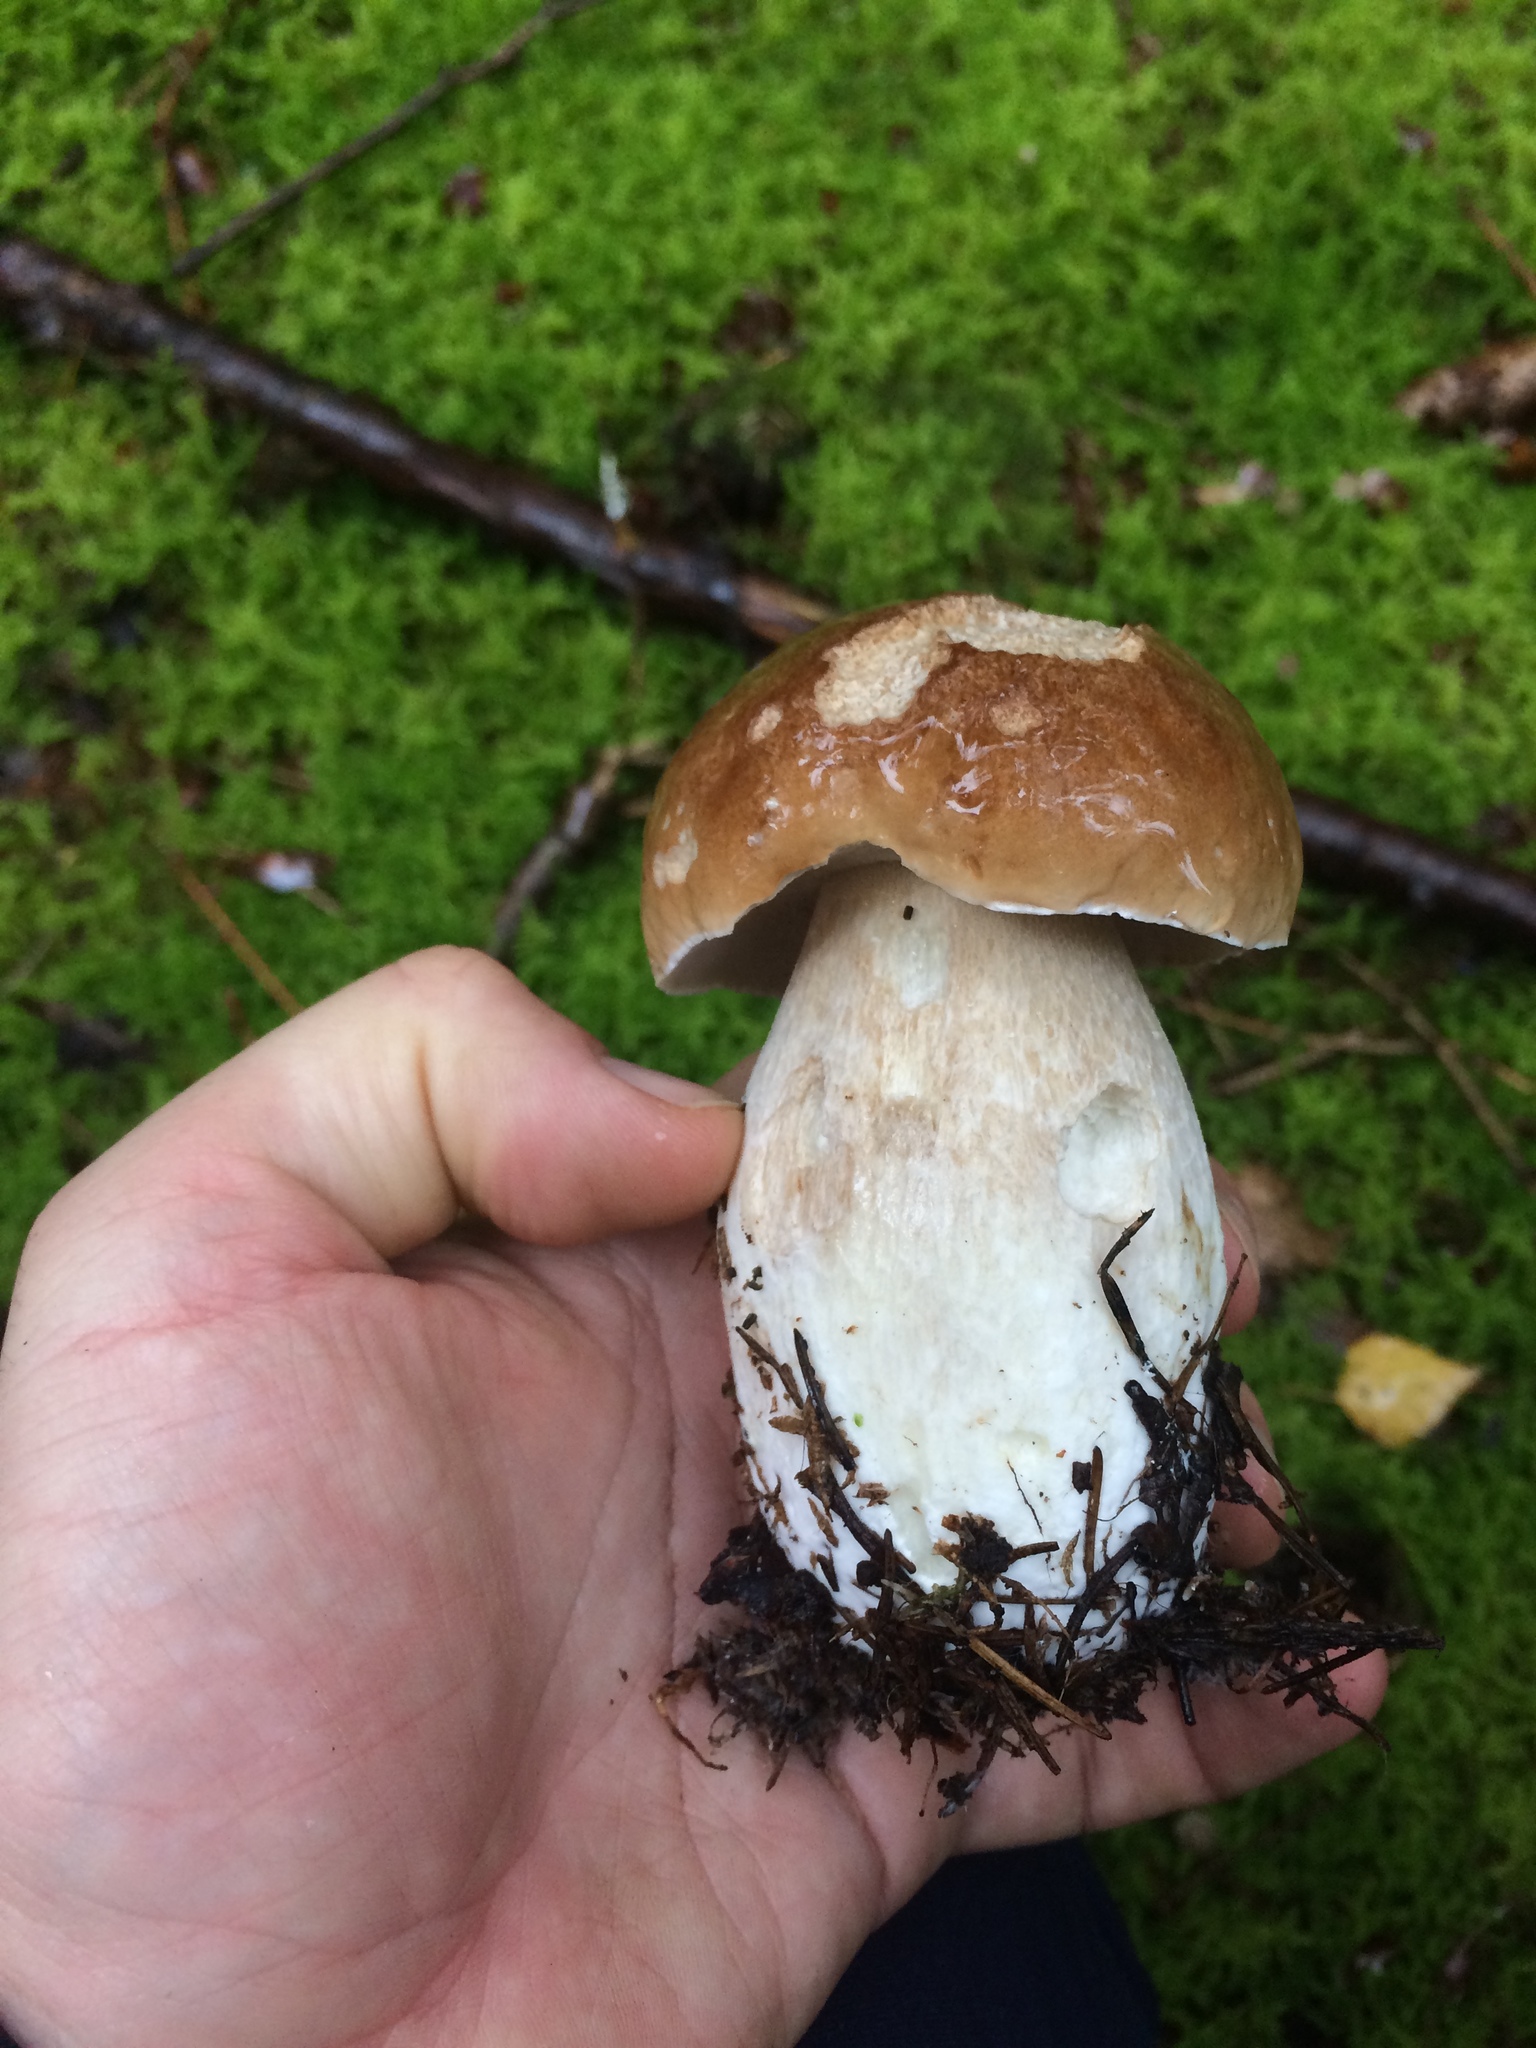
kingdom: Fungi
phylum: Basidiomycota
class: Agaricomycetes
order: Boletales
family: Boletaceae
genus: Boletus
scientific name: Boletus edulis
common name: Cep
